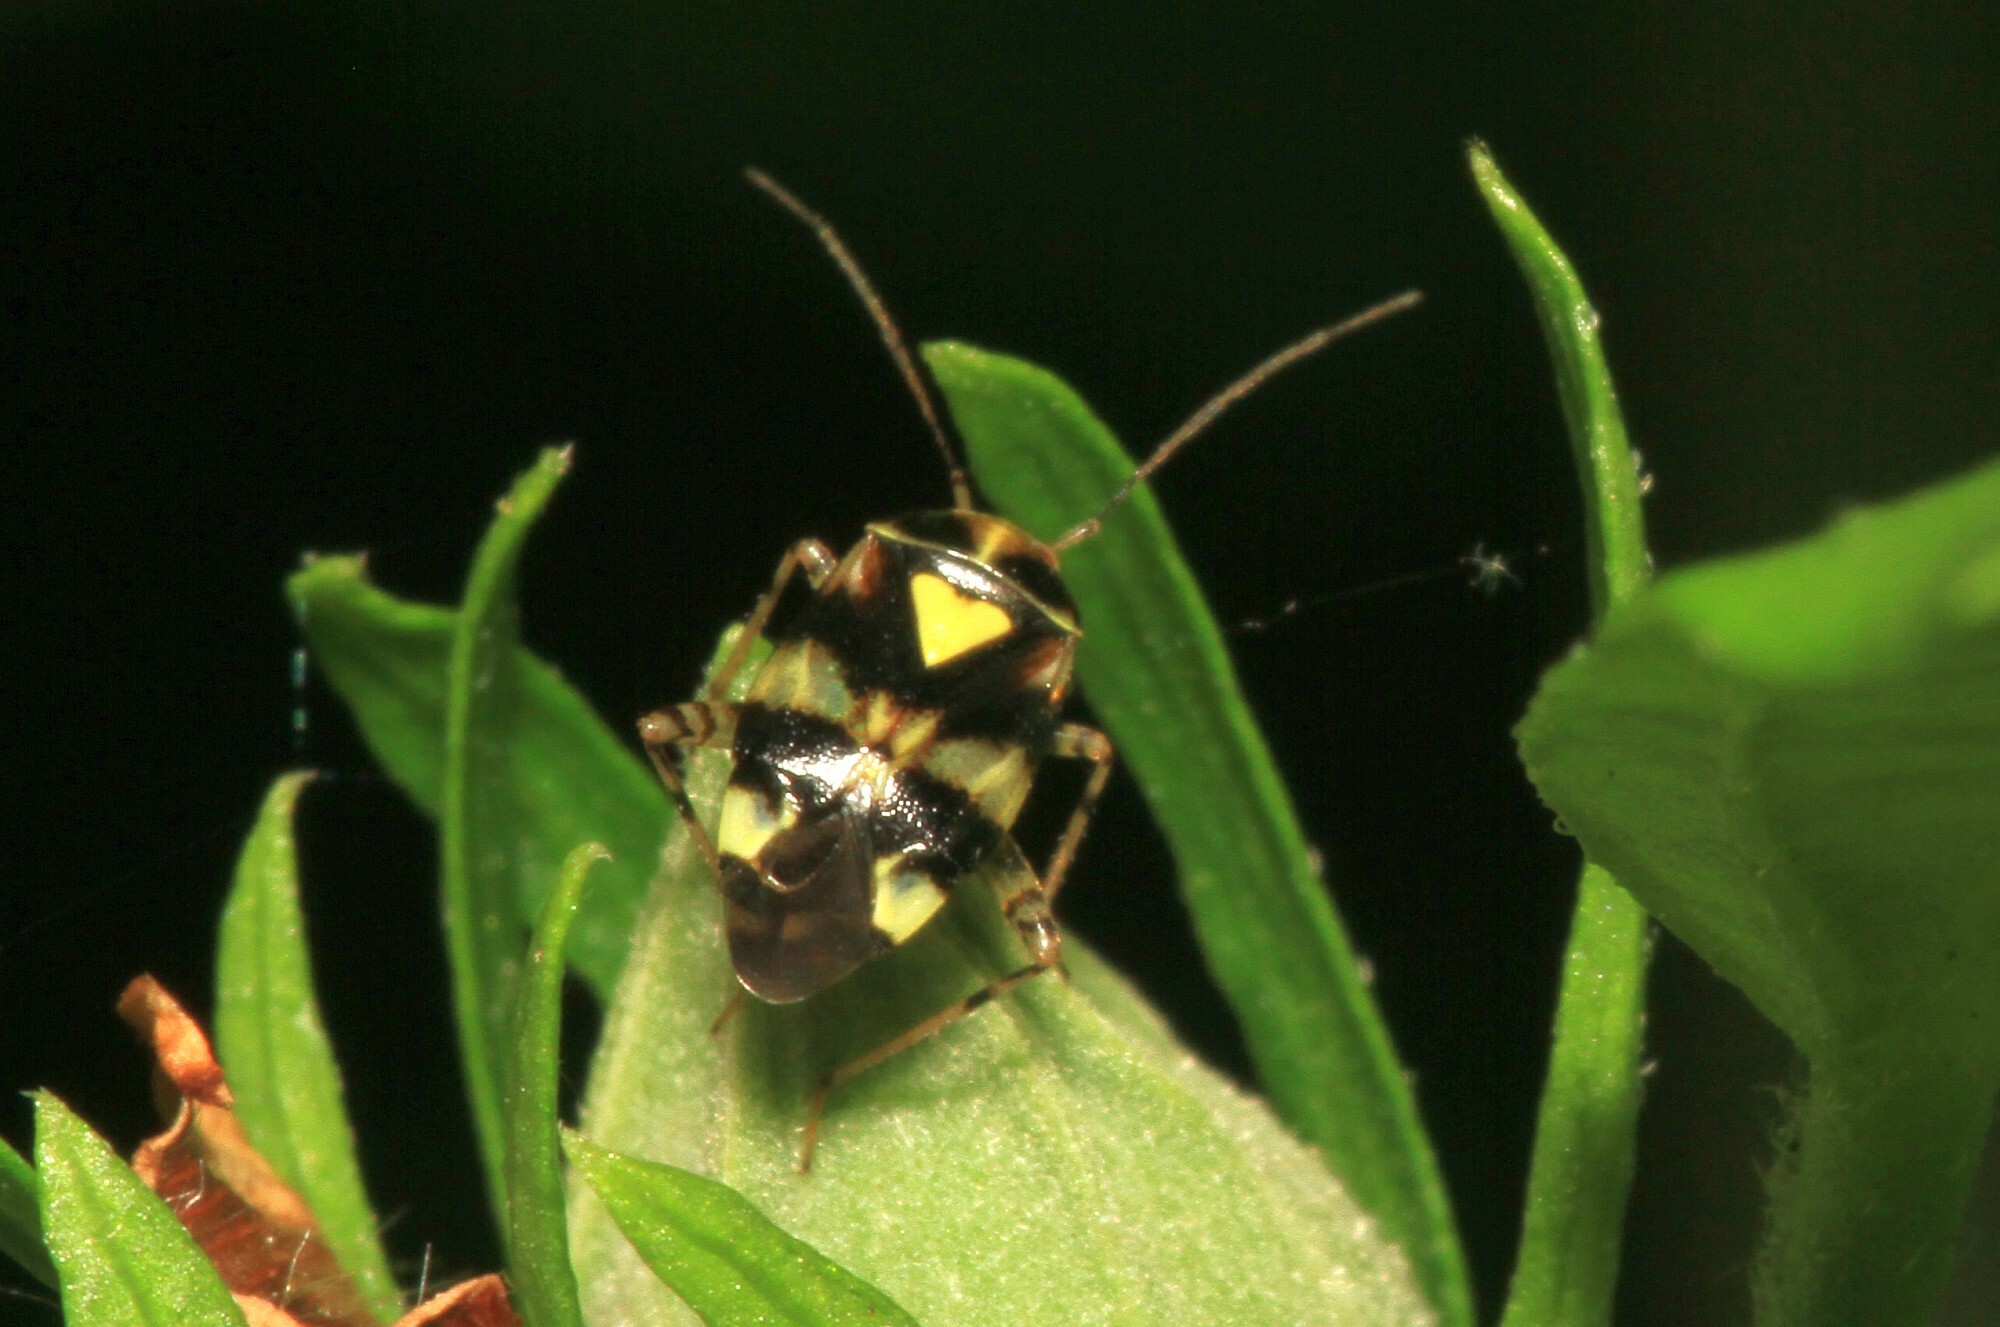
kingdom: Animalia
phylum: Arthropoda
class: Insecta
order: Hemiptera
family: Miridae
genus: Liocoris
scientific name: Liocoris tripustulatus
